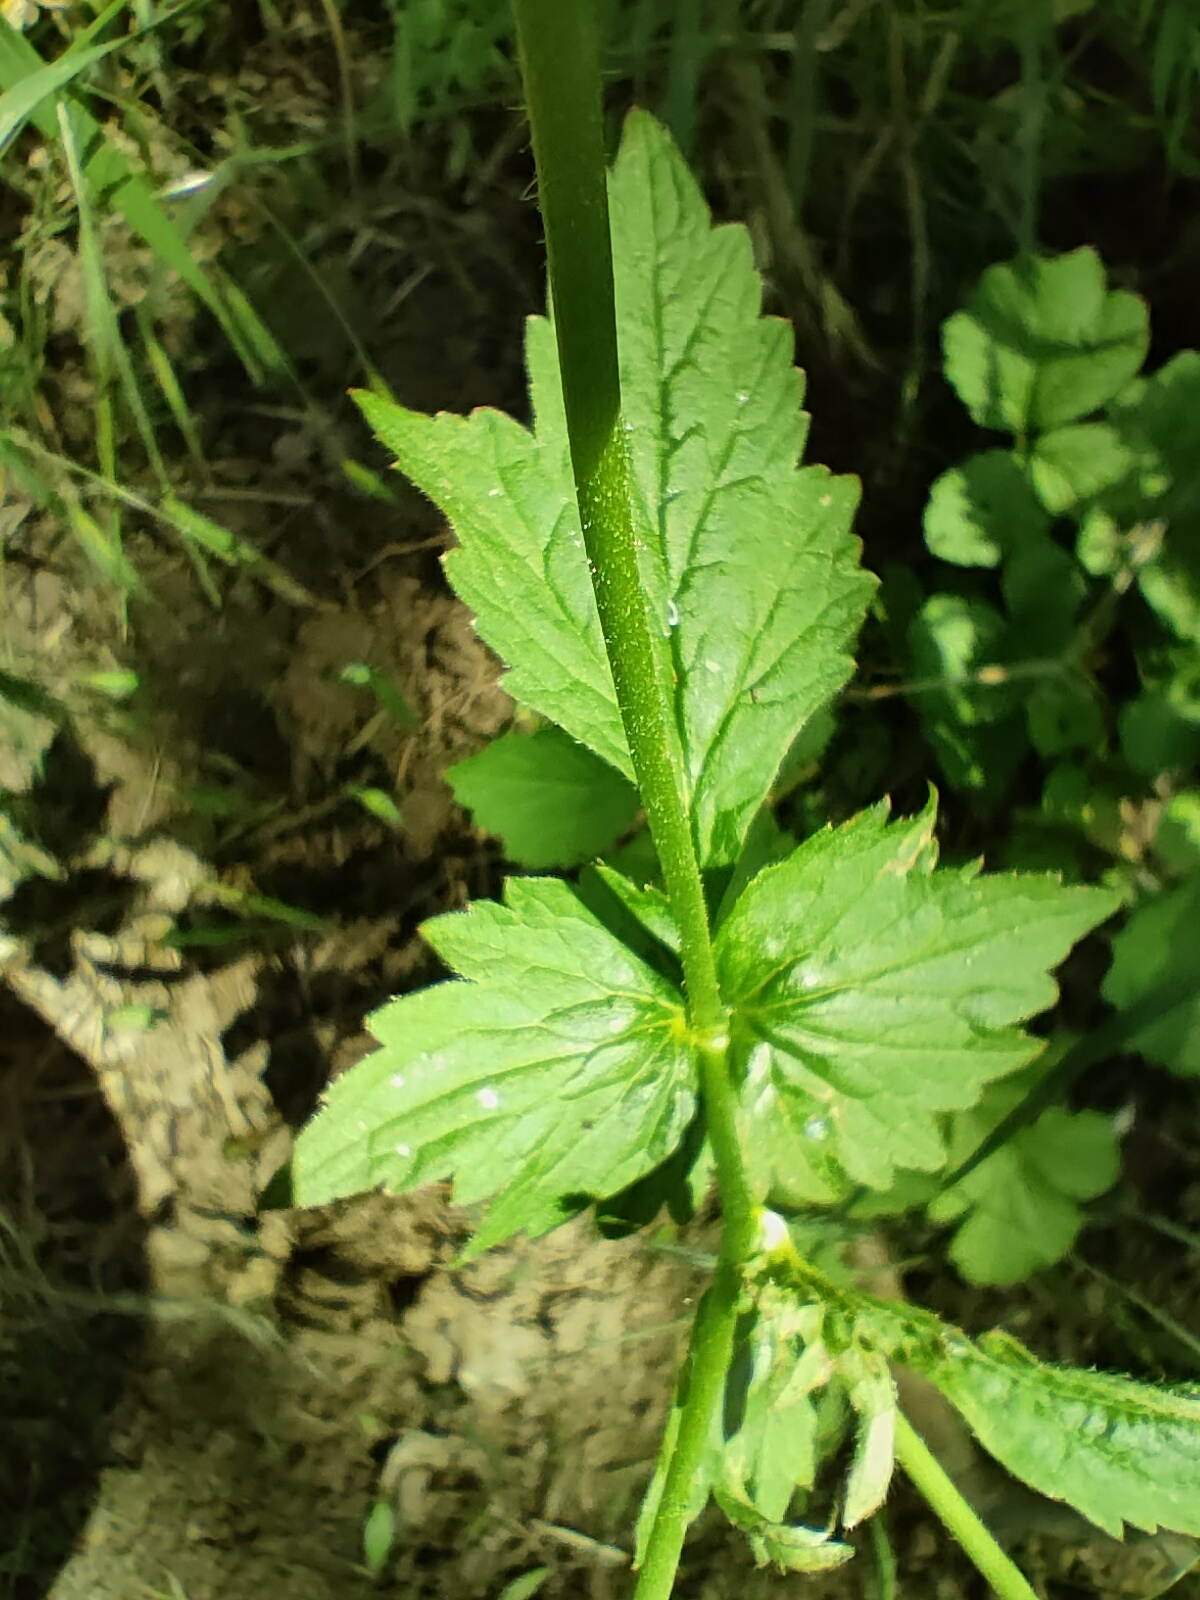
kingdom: Plantae
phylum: Tracheophyta
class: Magnoliopsida
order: Rosales
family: Rosaceae
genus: Geum
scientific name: Geum urbanum
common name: Wood avens
